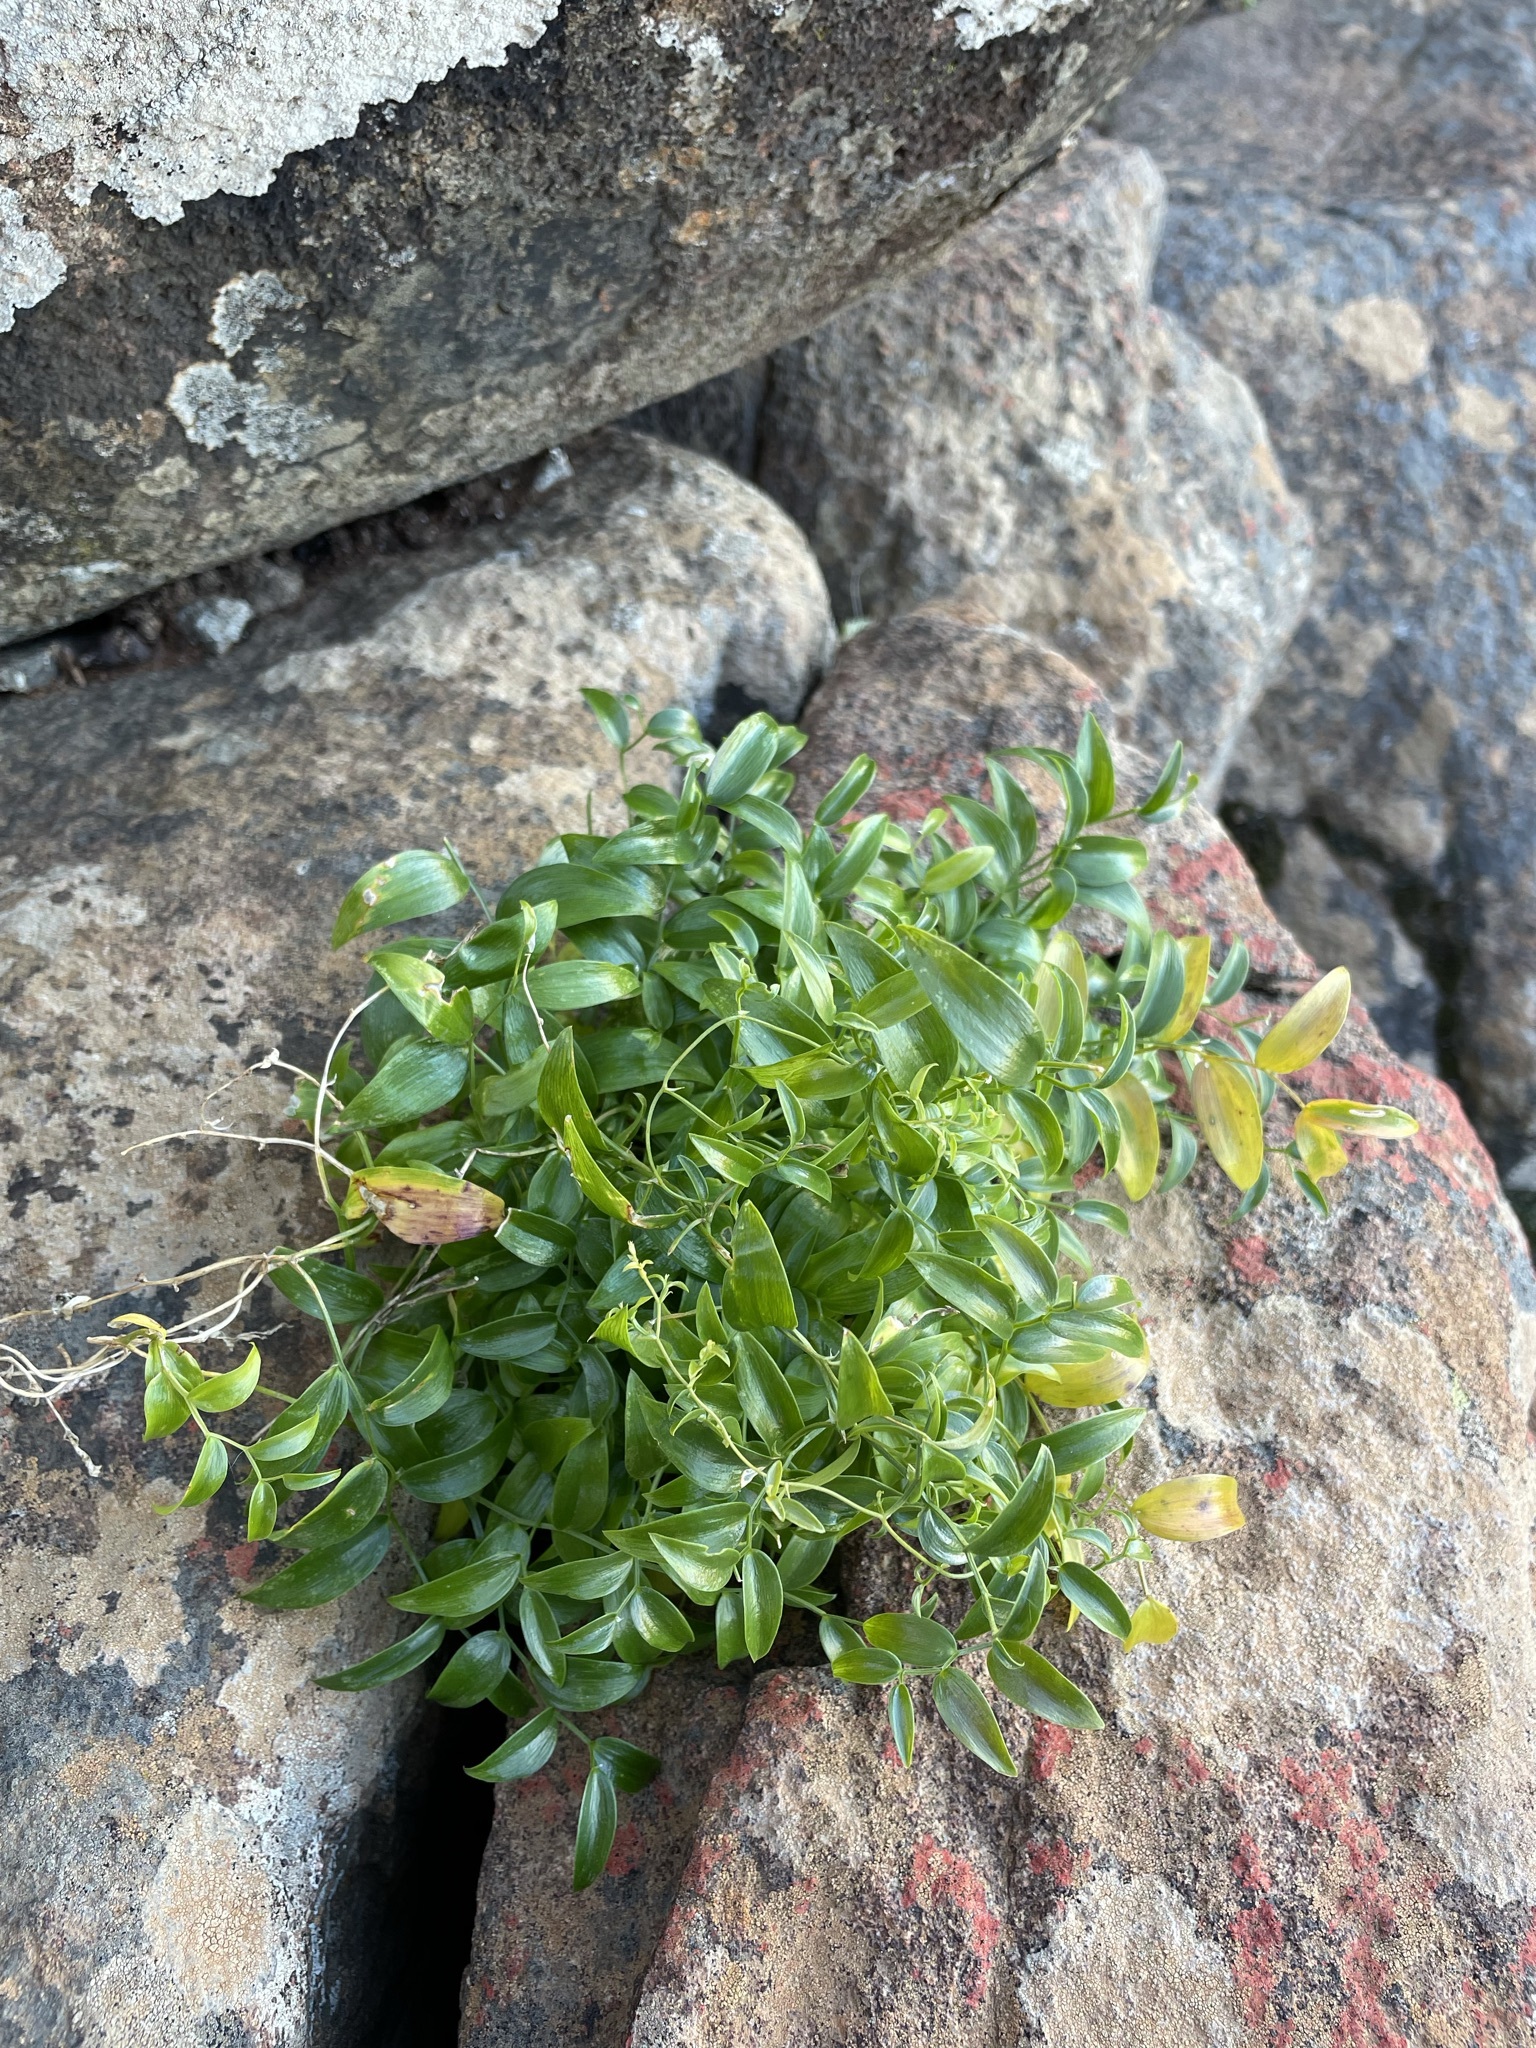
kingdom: Plantae
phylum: Tracheophyta
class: Liliopsida
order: Asparagales
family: Asparagaceae
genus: Asparagus
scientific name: Asparagus asparagoides
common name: African asparagus fern
